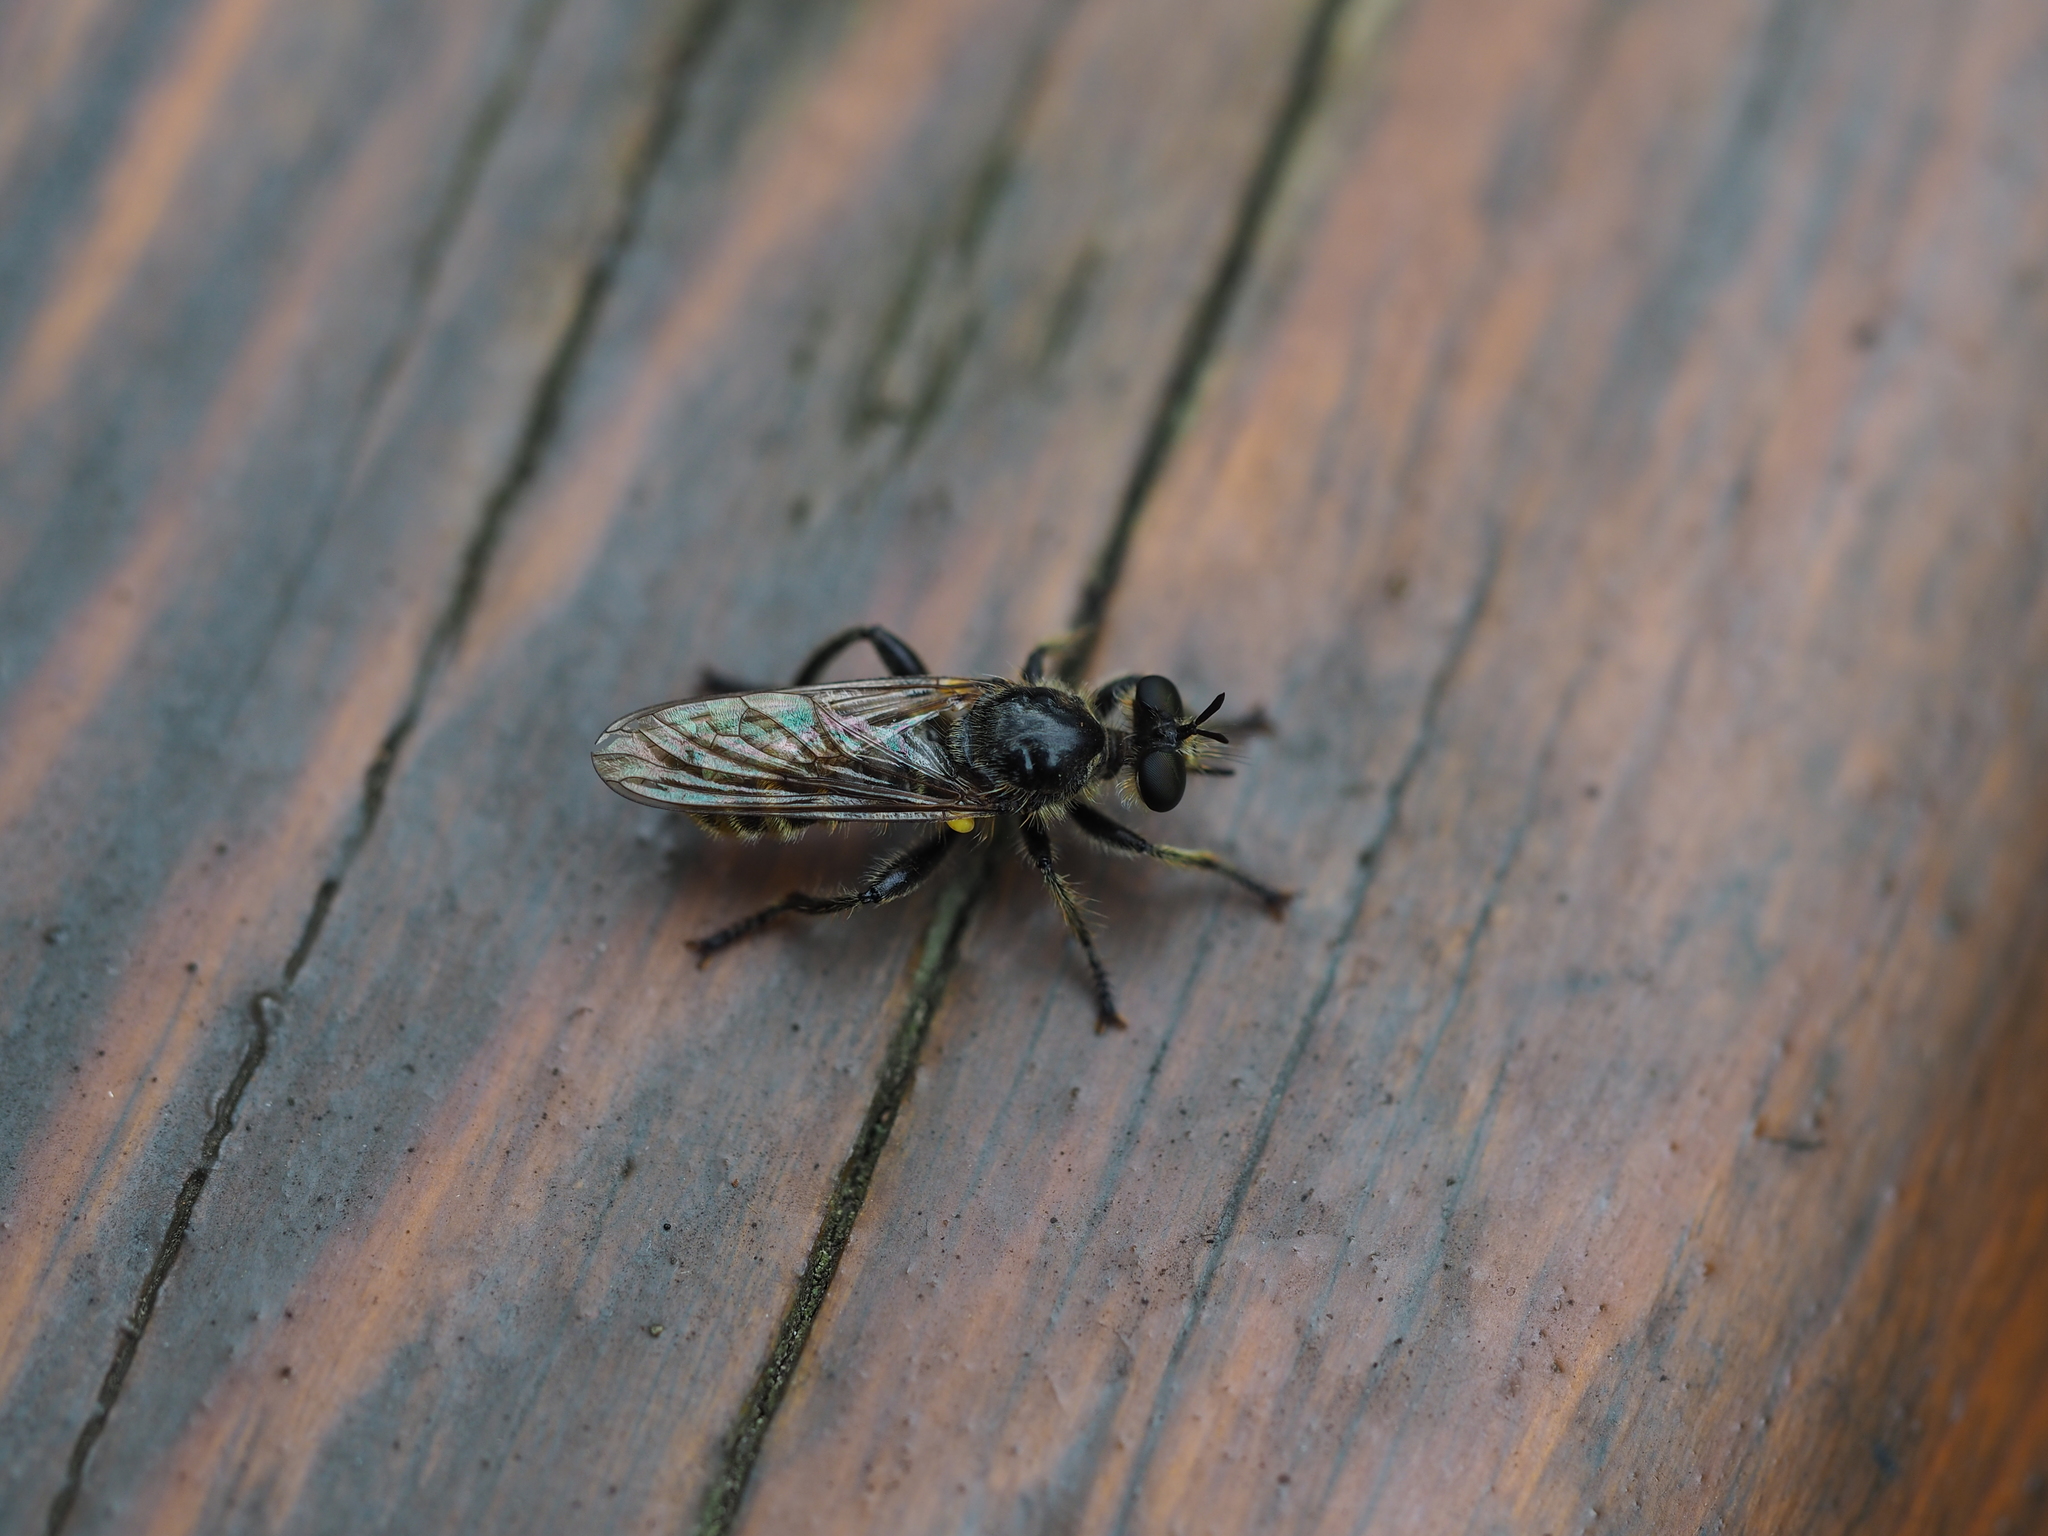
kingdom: Animalia
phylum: Arthropoda
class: Insecta
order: Diptera
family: Asilidae
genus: Lamyra
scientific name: Lamyra marginata
